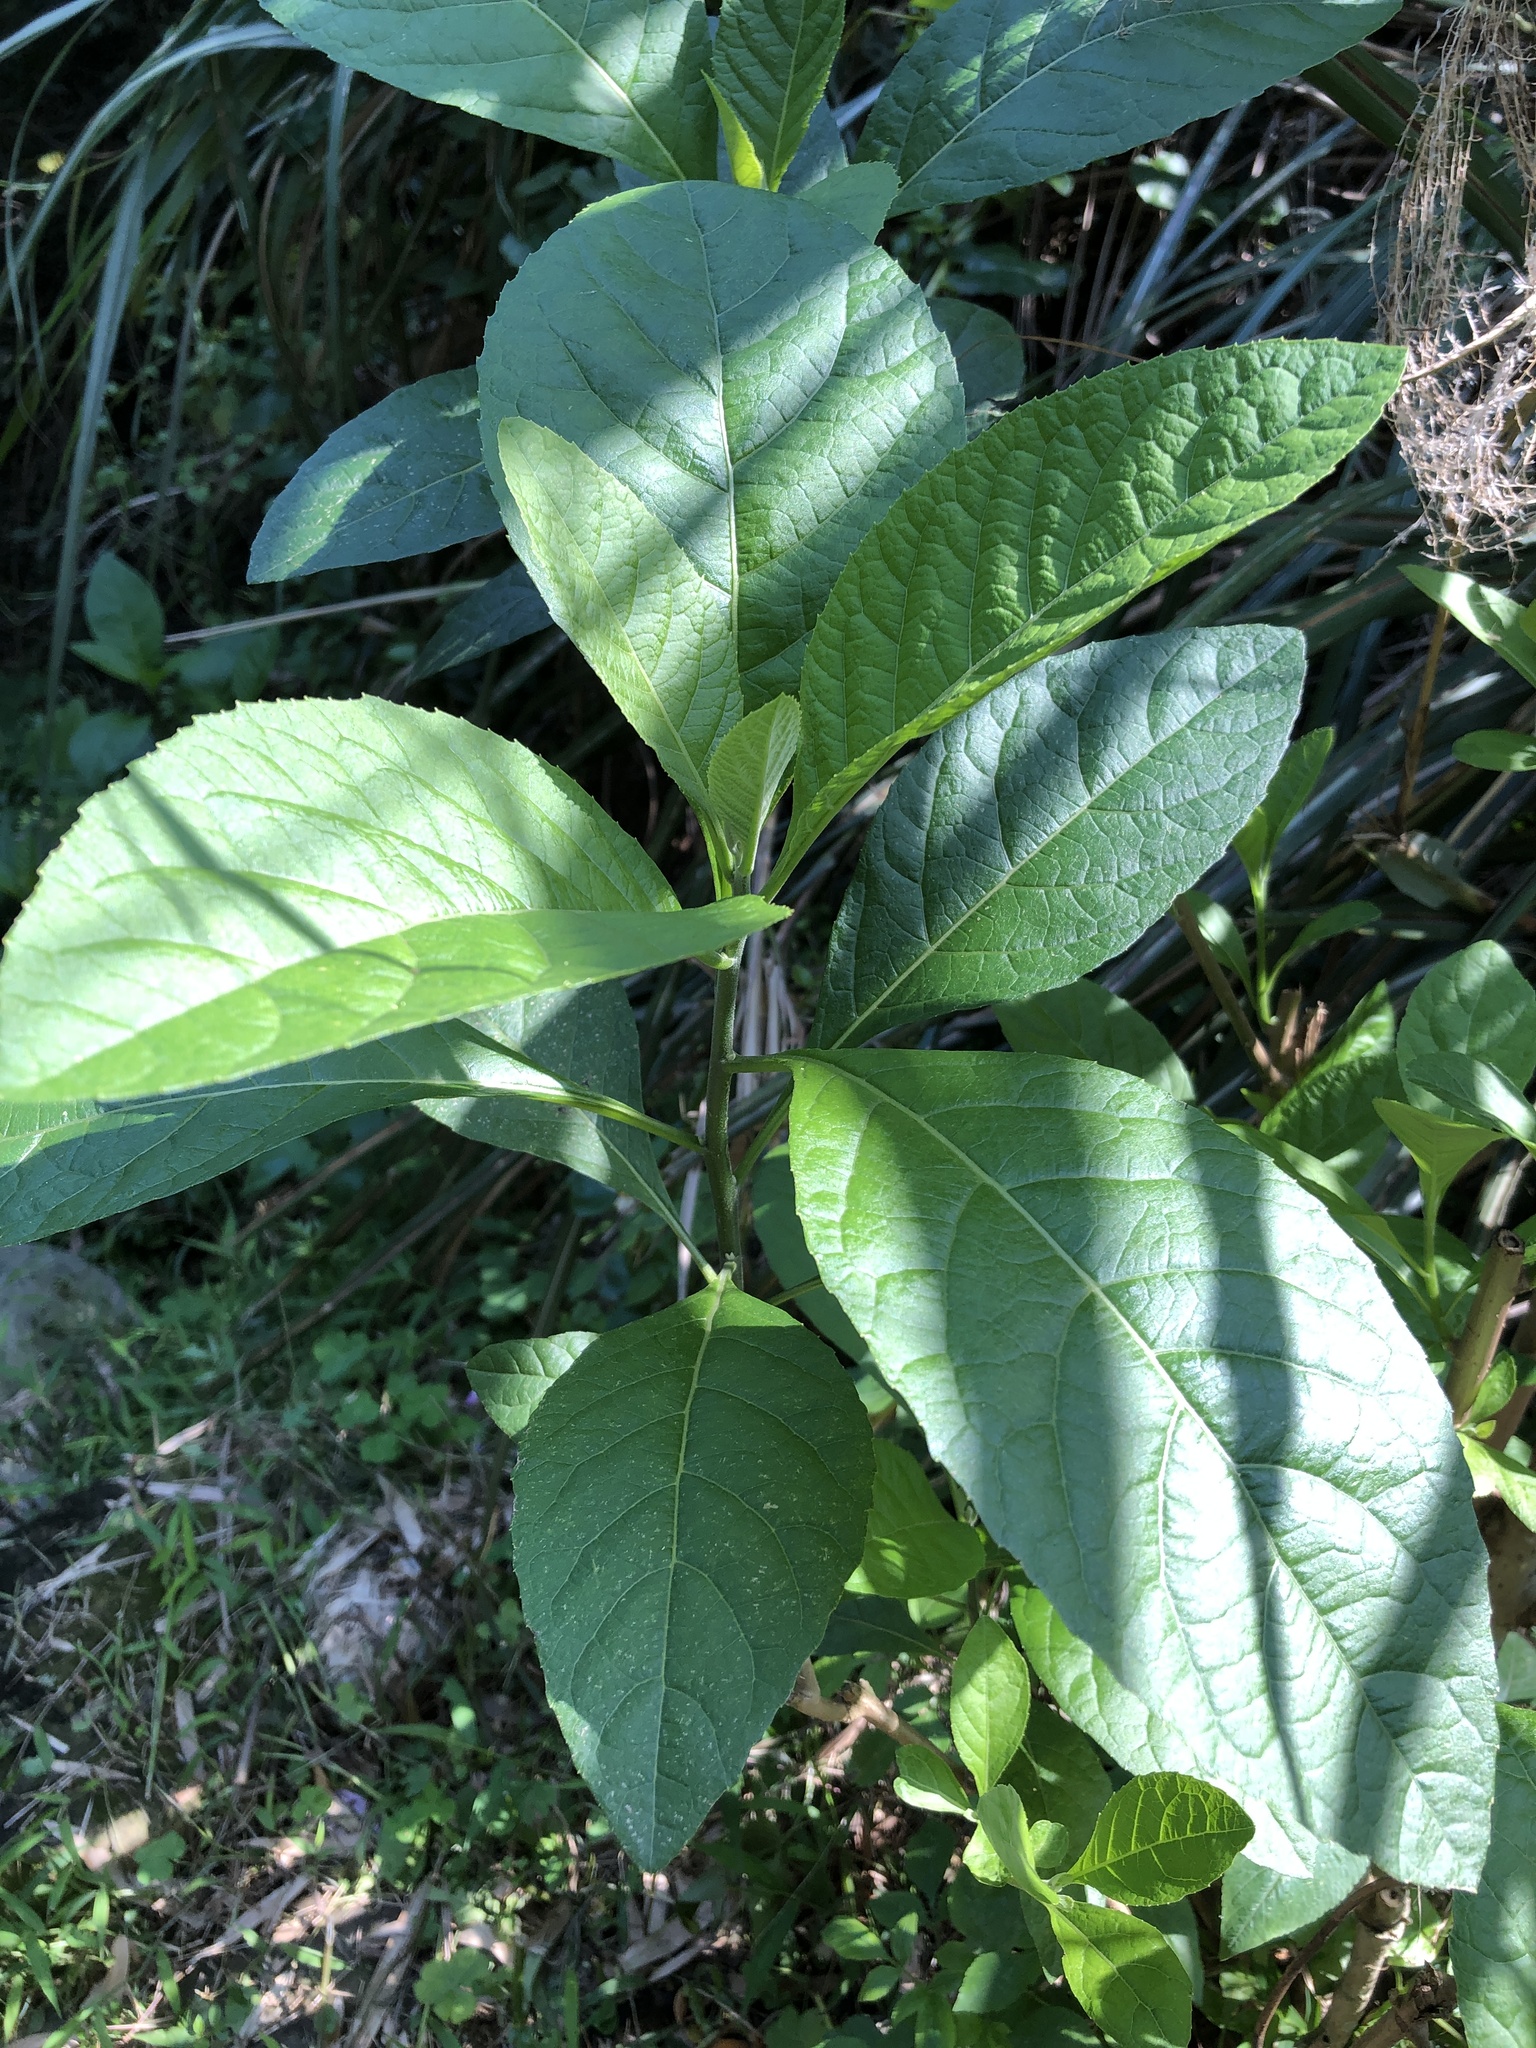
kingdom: Plantae
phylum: Tracheophyta
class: Magnoliopsida
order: Asterales
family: Asteraceae
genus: Gymnanthemum
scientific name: Gymnanthemum amygdalinum
